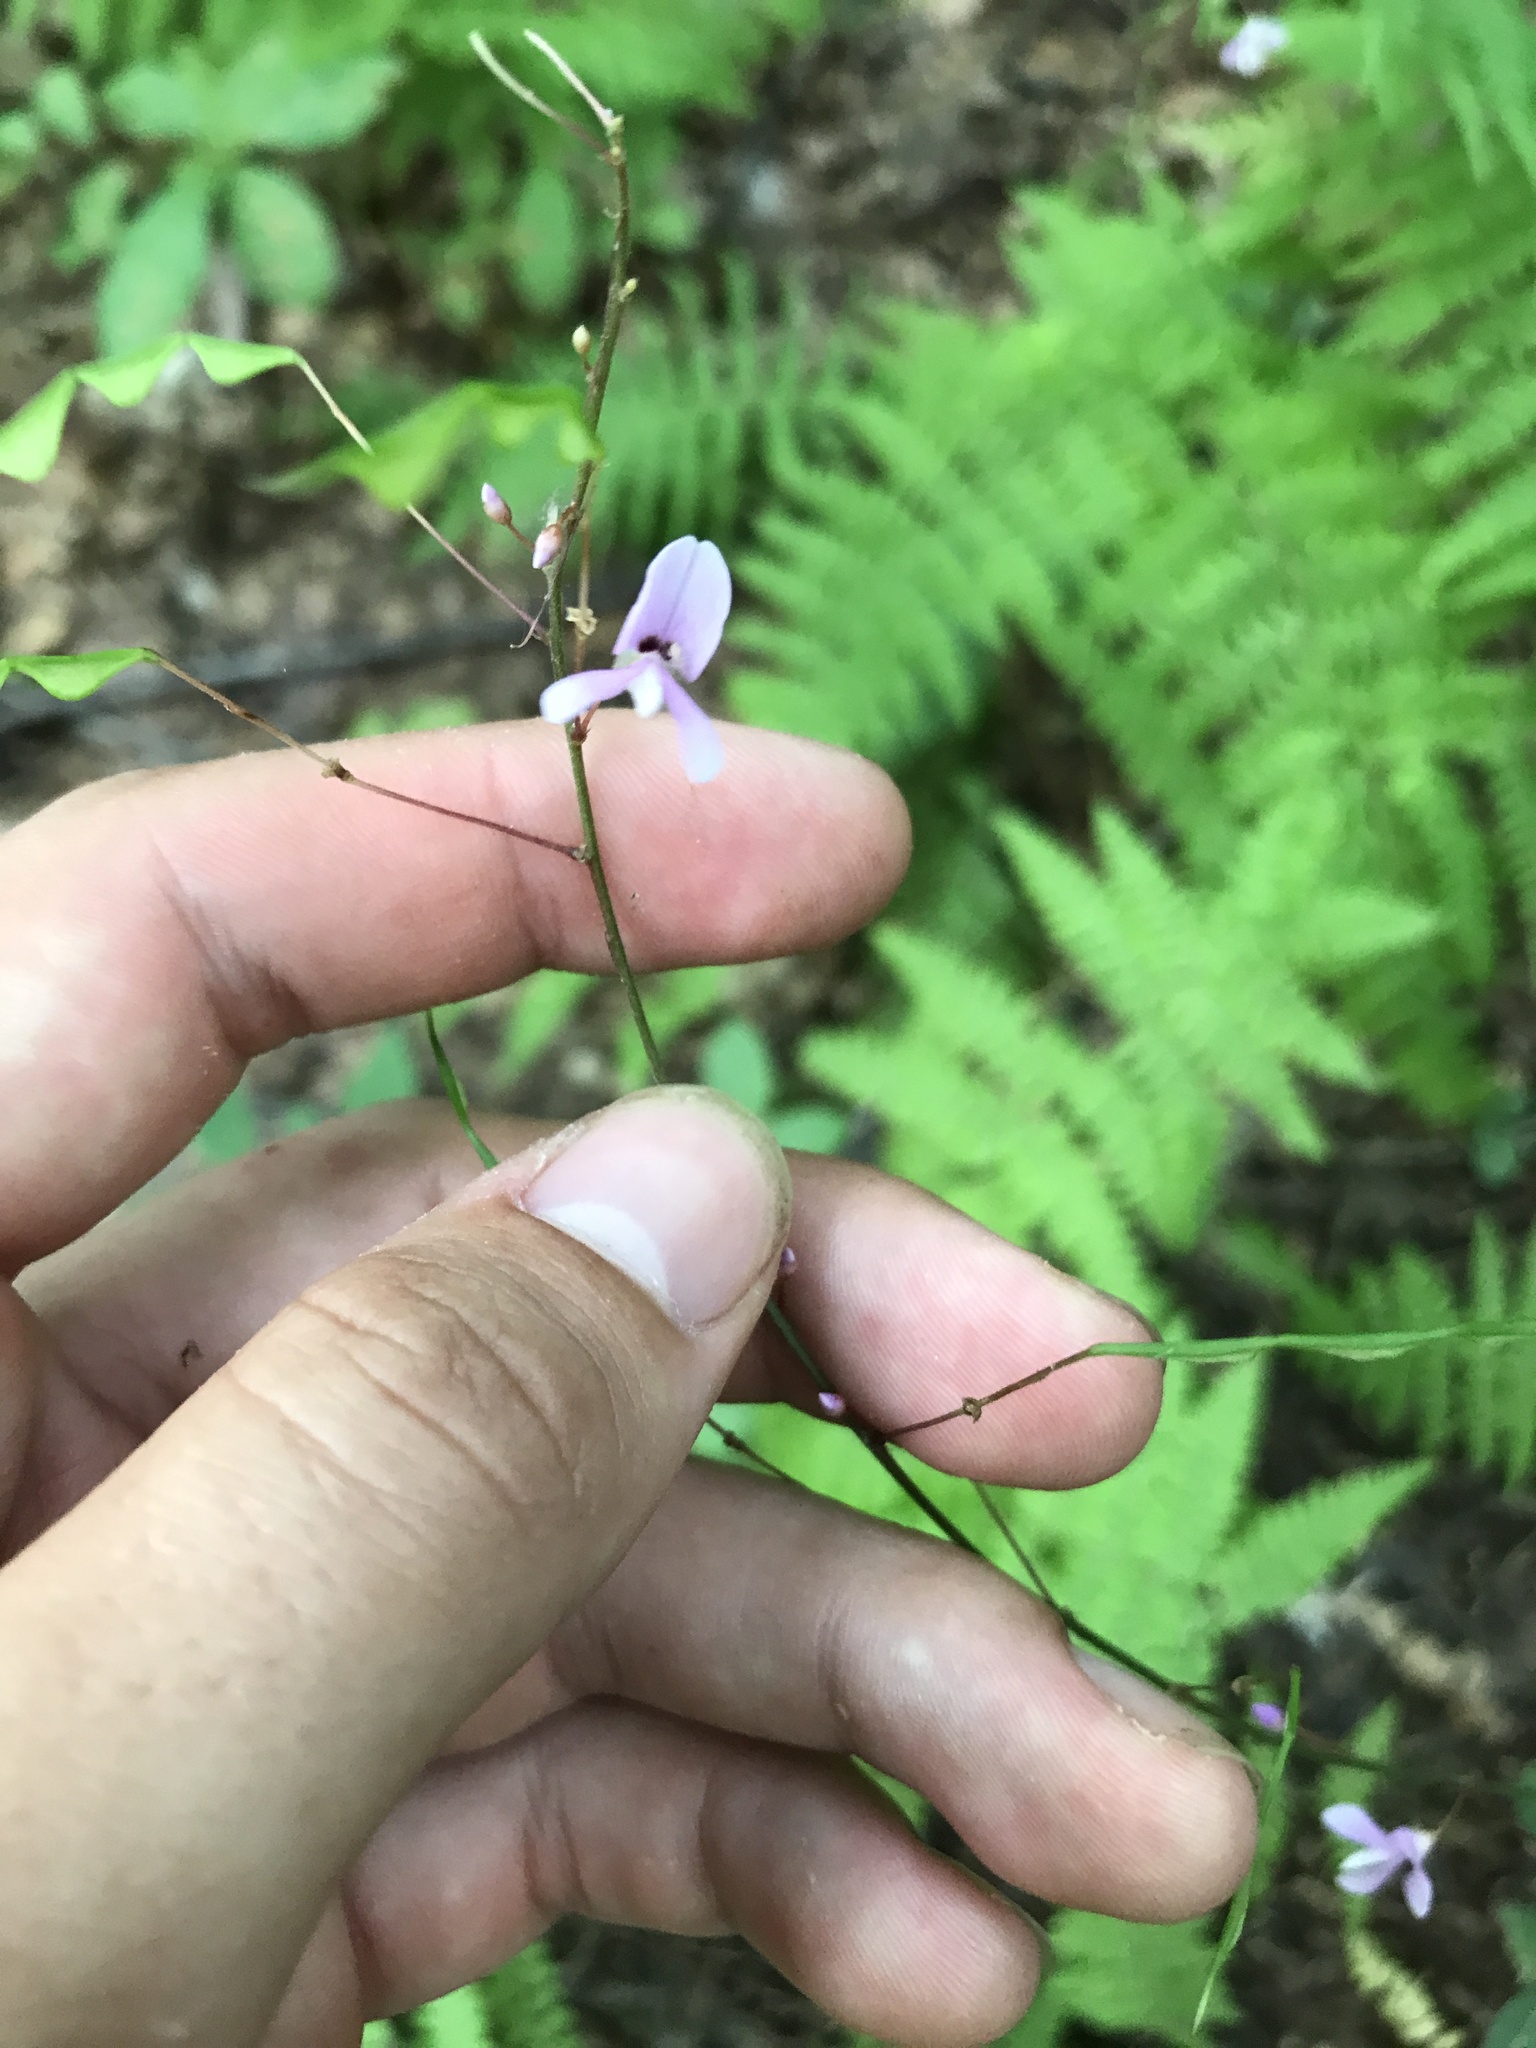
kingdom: Plantae
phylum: Tracheophyta
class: Magnoliopsida
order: Fabales
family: Fabaceae
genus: Hylodesmum
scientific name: Hylodesmum nudiflorum
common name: Bare-stemmed tick-trefoil
